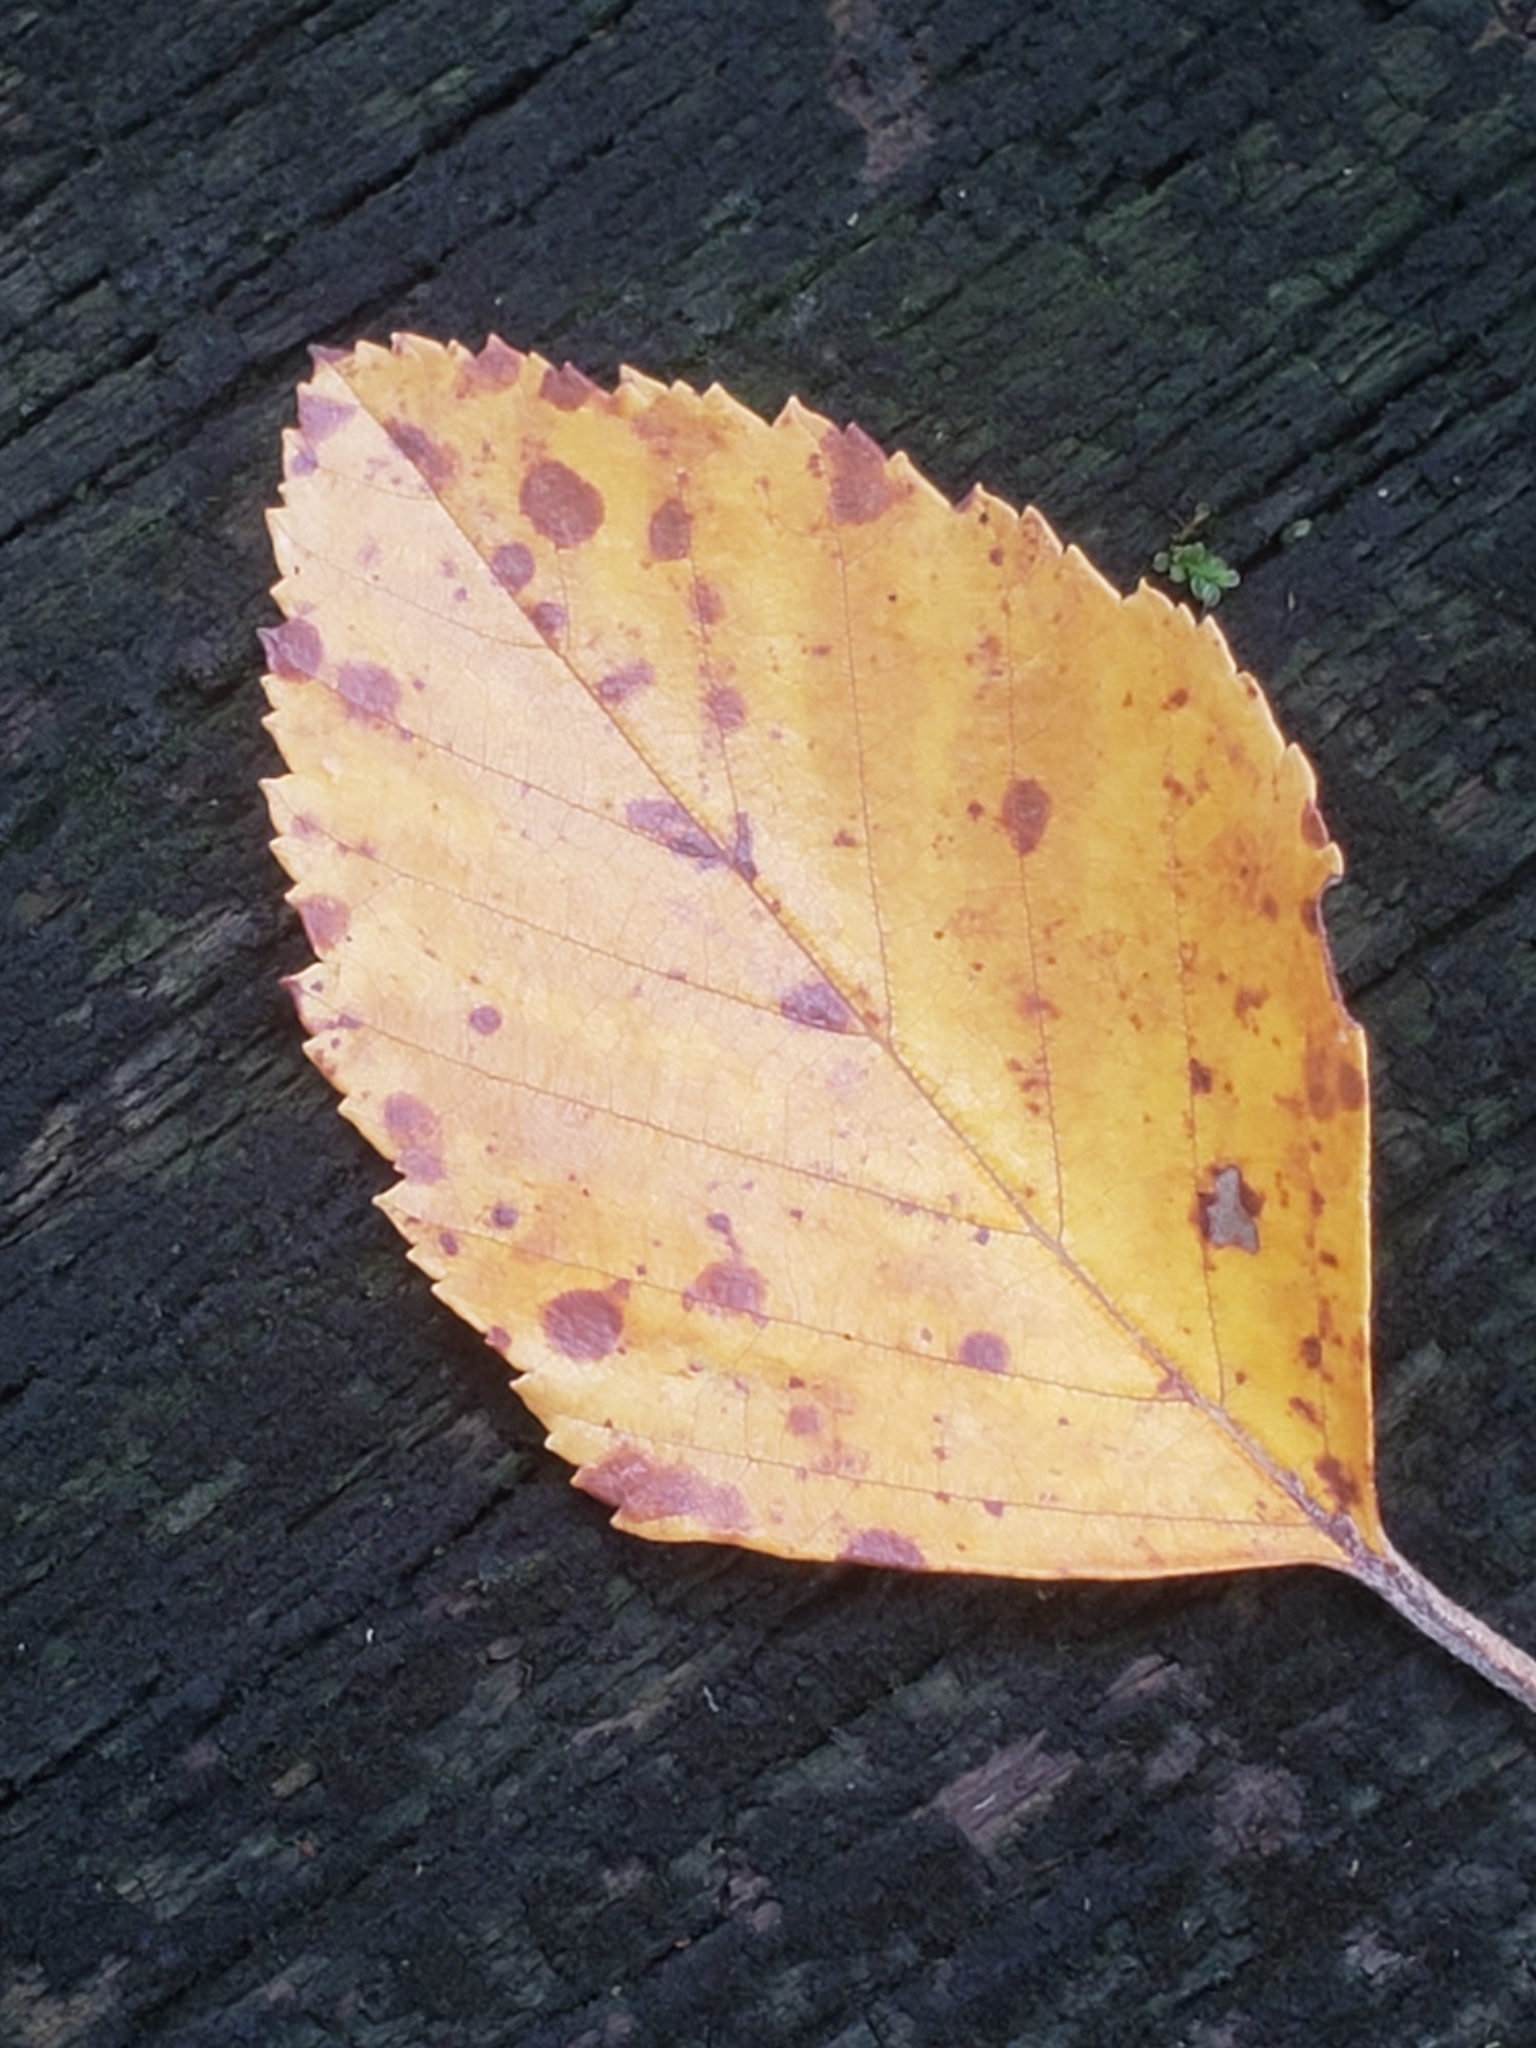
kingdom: Plantae
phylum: Tracheophyta
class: Magnoliopsida
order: Fagales
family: Betulaceae
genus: Betula
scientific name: Betula nigra
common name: Black birch
